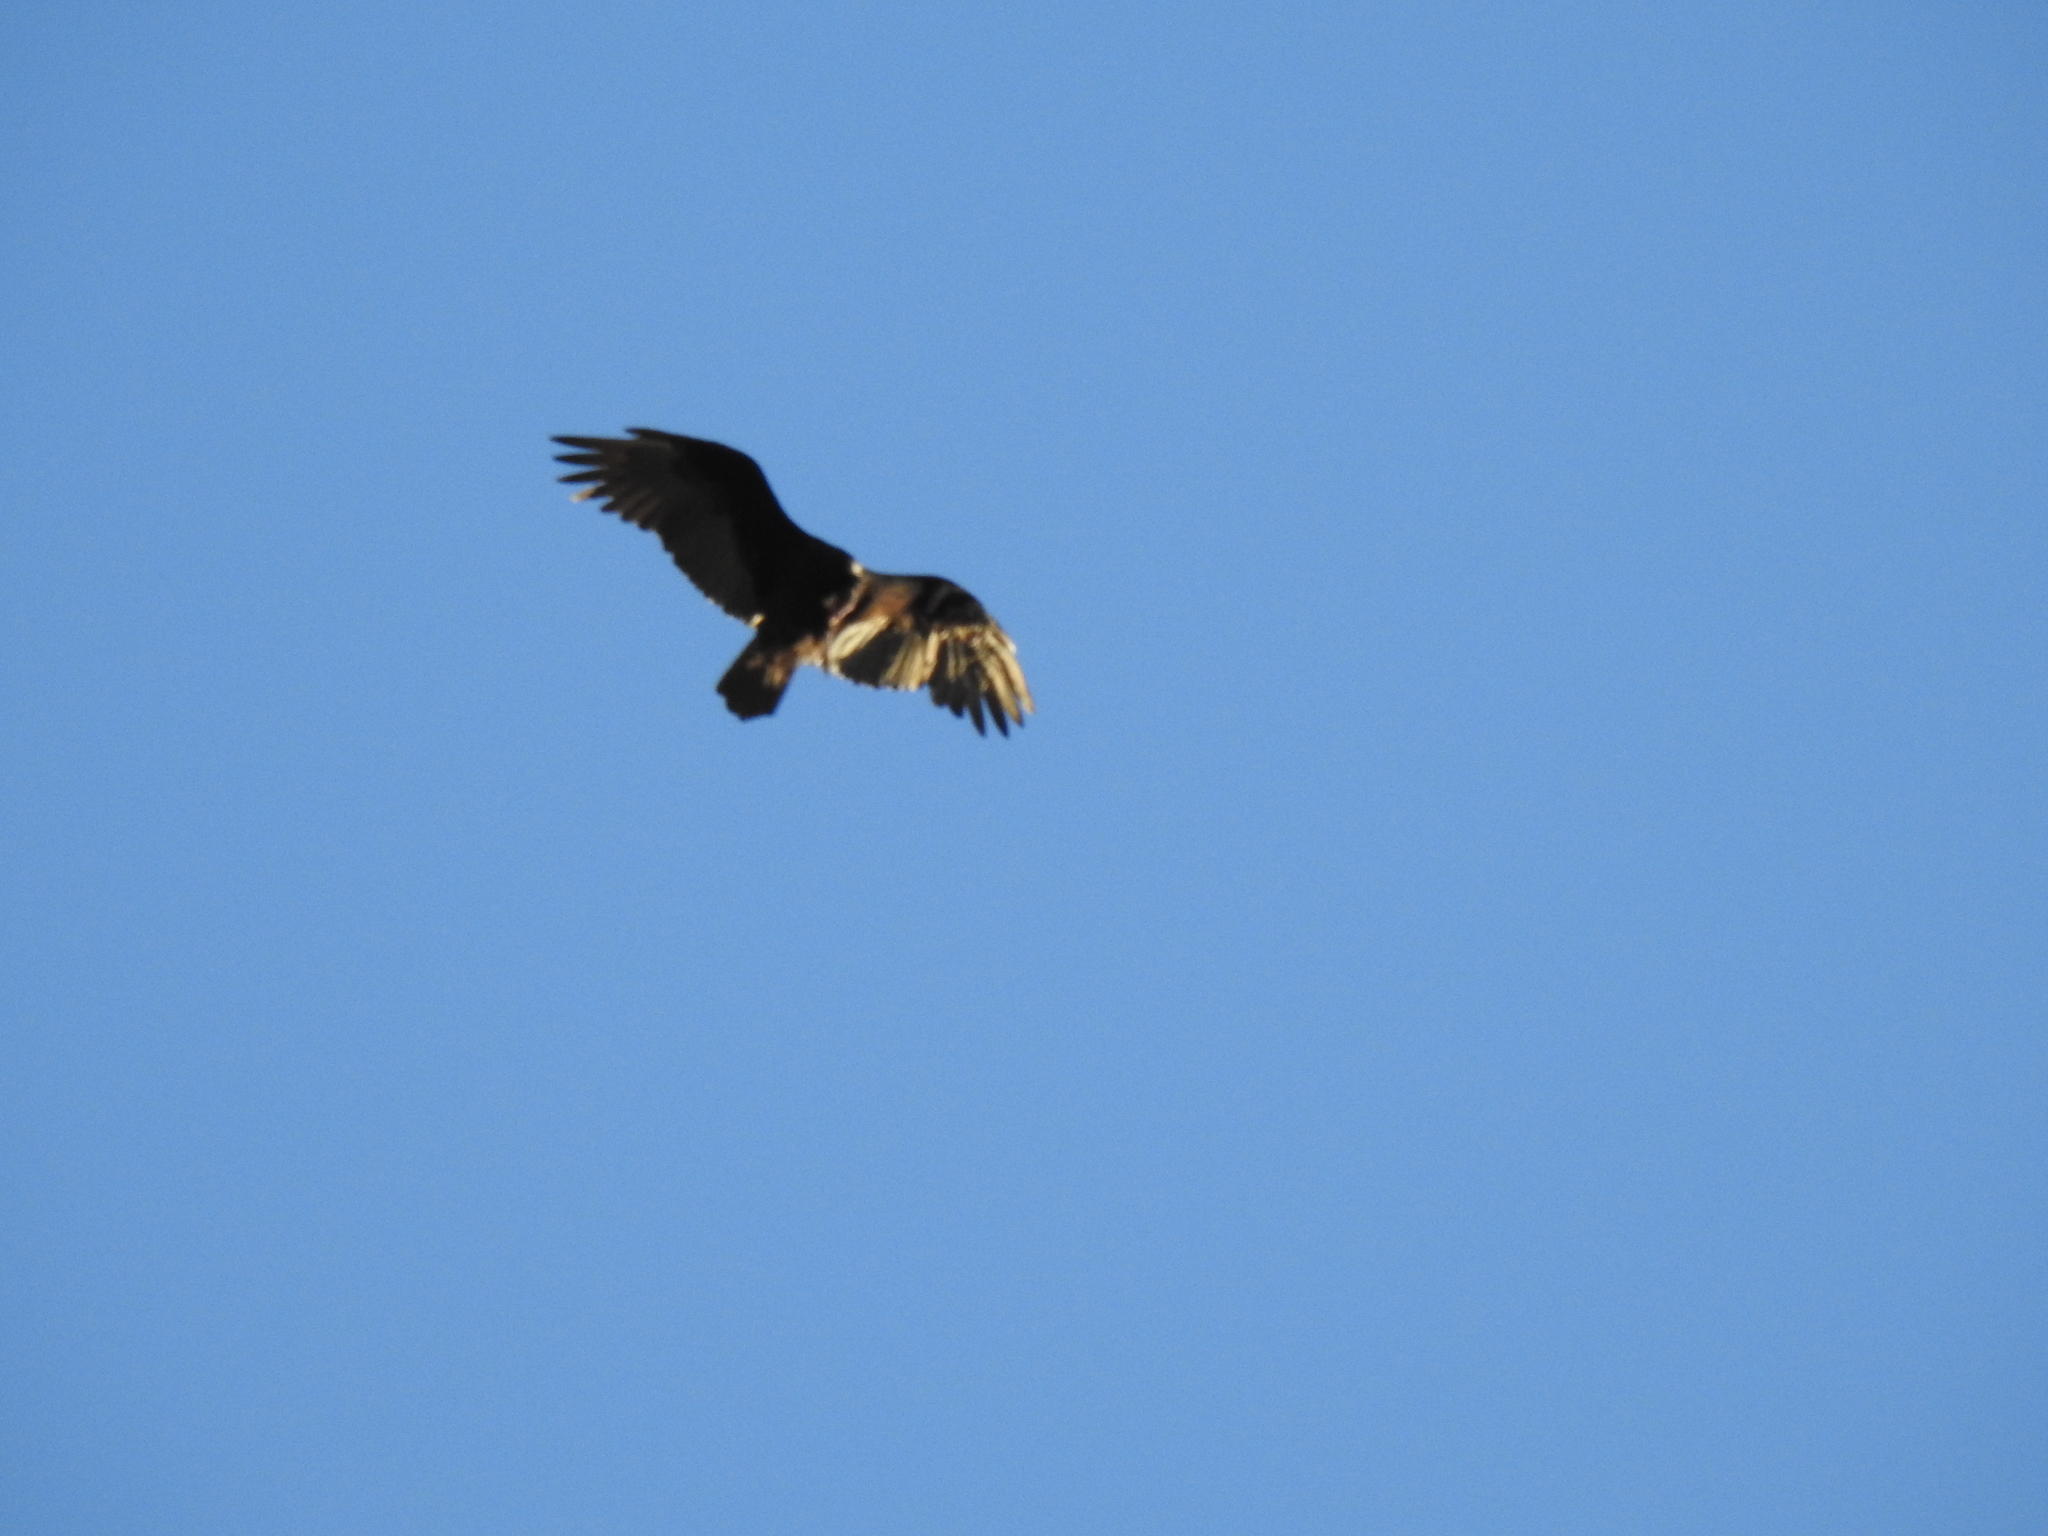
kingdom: Animalia
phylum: Chordata
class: Aves
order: Accipitriformes
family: Cathartidae
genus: Cathartes
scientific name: Cathartes aura
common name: Turkey vulture
